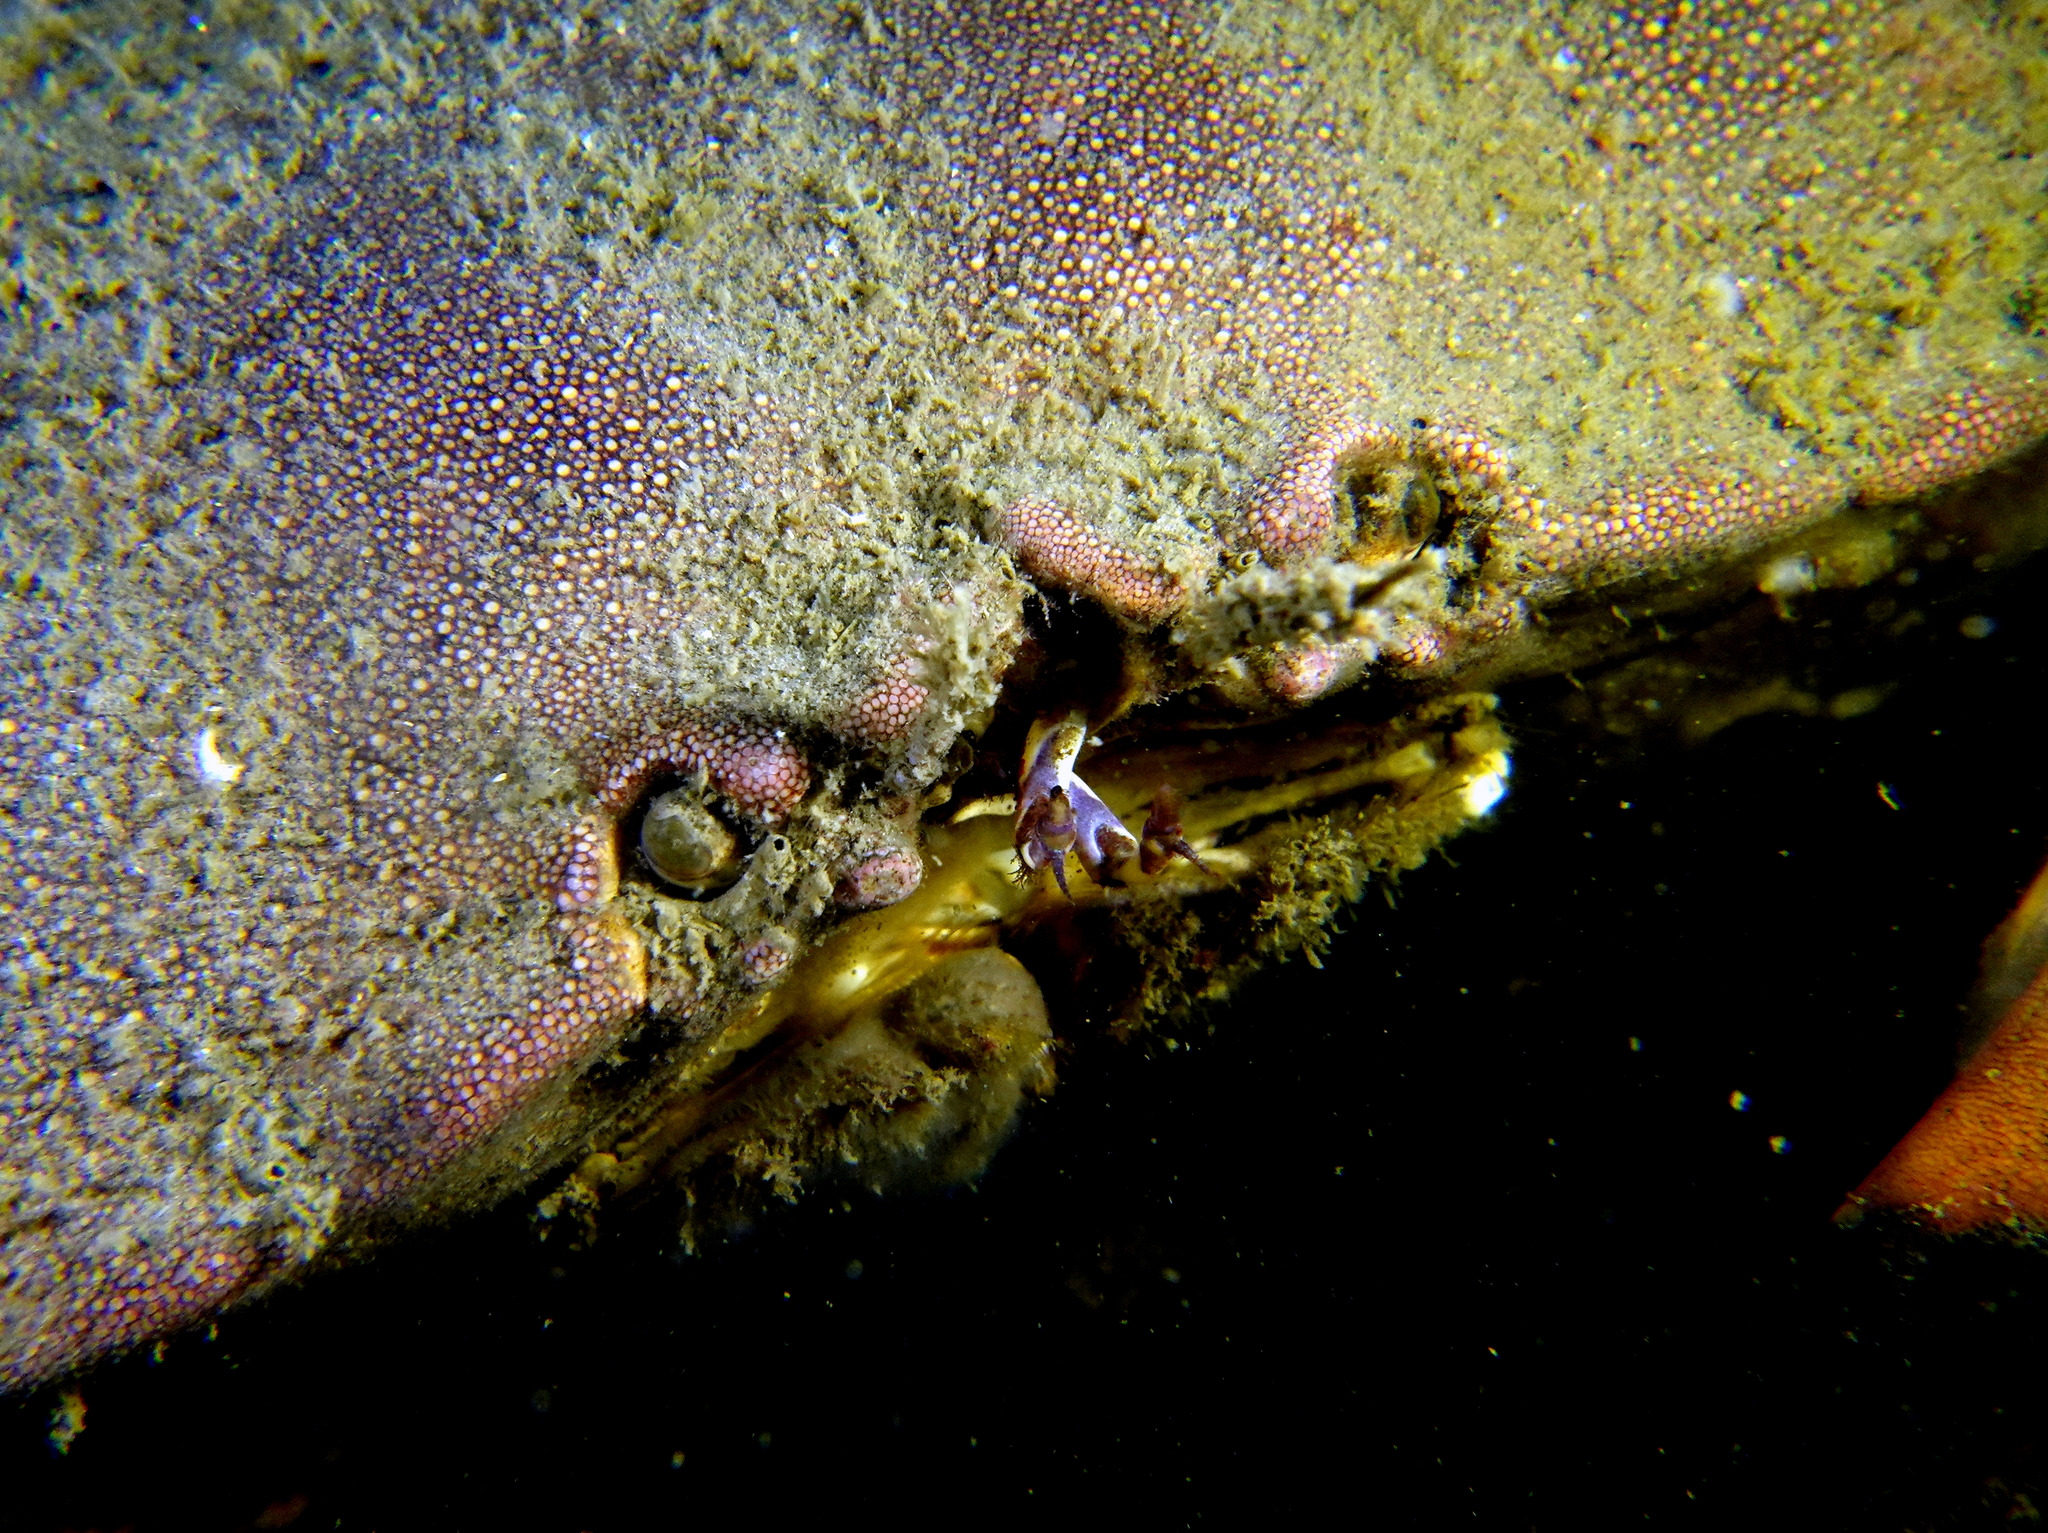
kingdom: Animalia
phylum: Arthropoda
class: Malacostraca
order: Decapoda
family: Cancridae
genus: Cancer
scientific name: Cancer pagurus
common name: Edible crab
